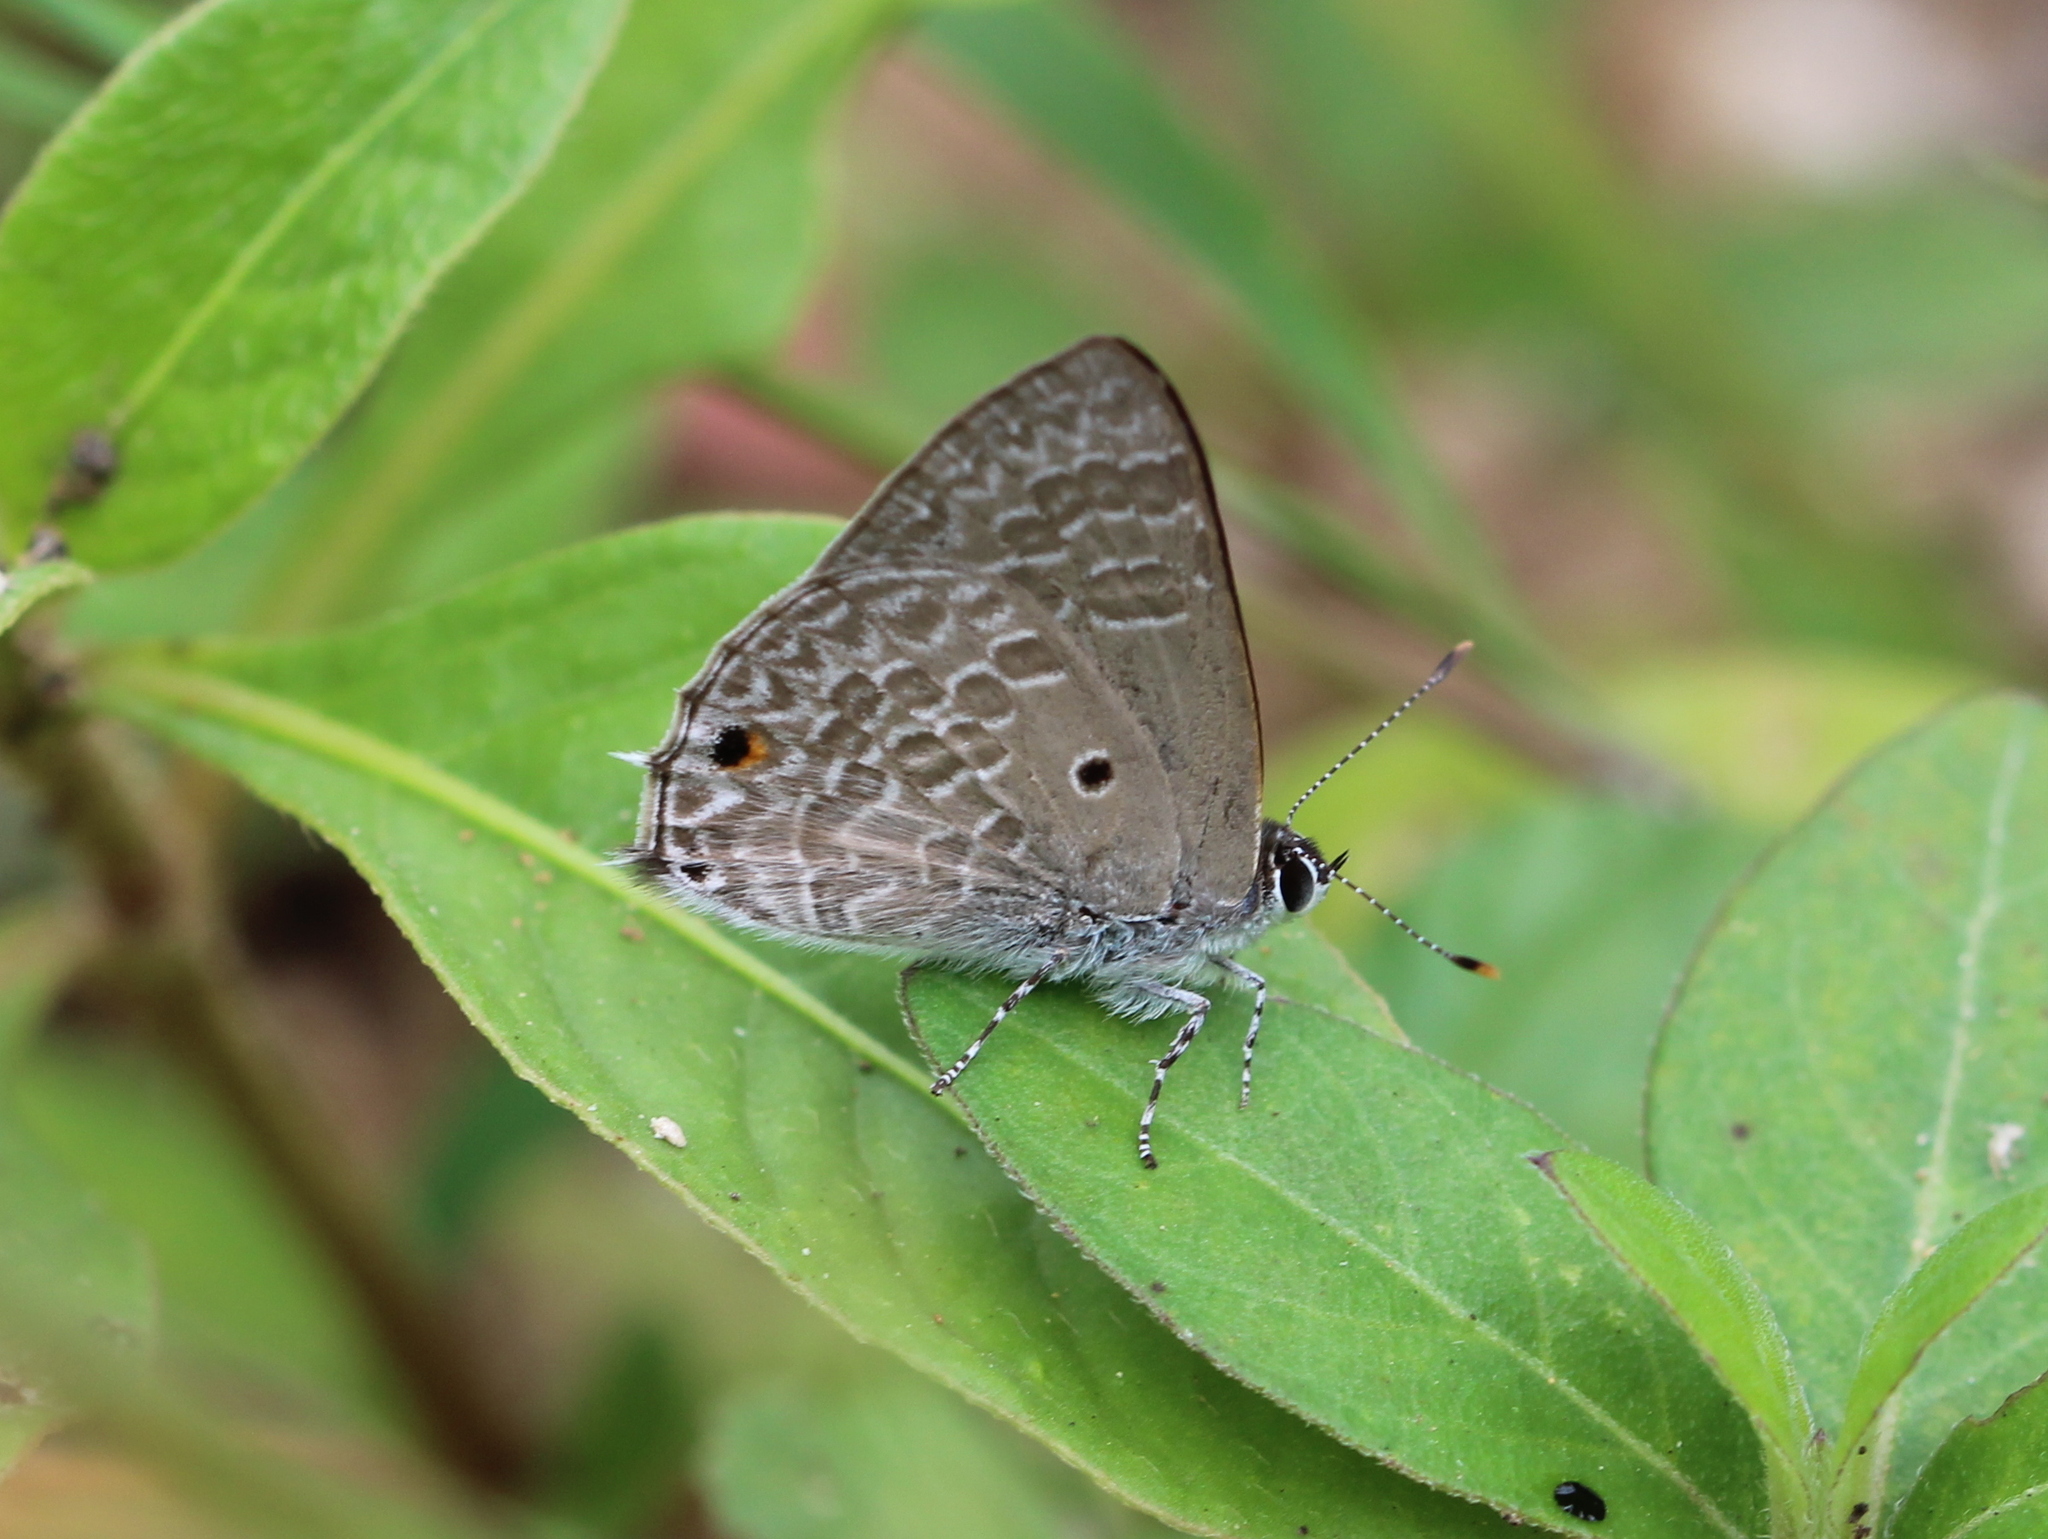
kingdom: Animalia
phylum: Arthropoda
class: Insecta
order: Lepidoptera
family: Lycaenidae
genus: Anthene
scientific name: Anthene lycaenina
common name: Pointed ciliate blue
